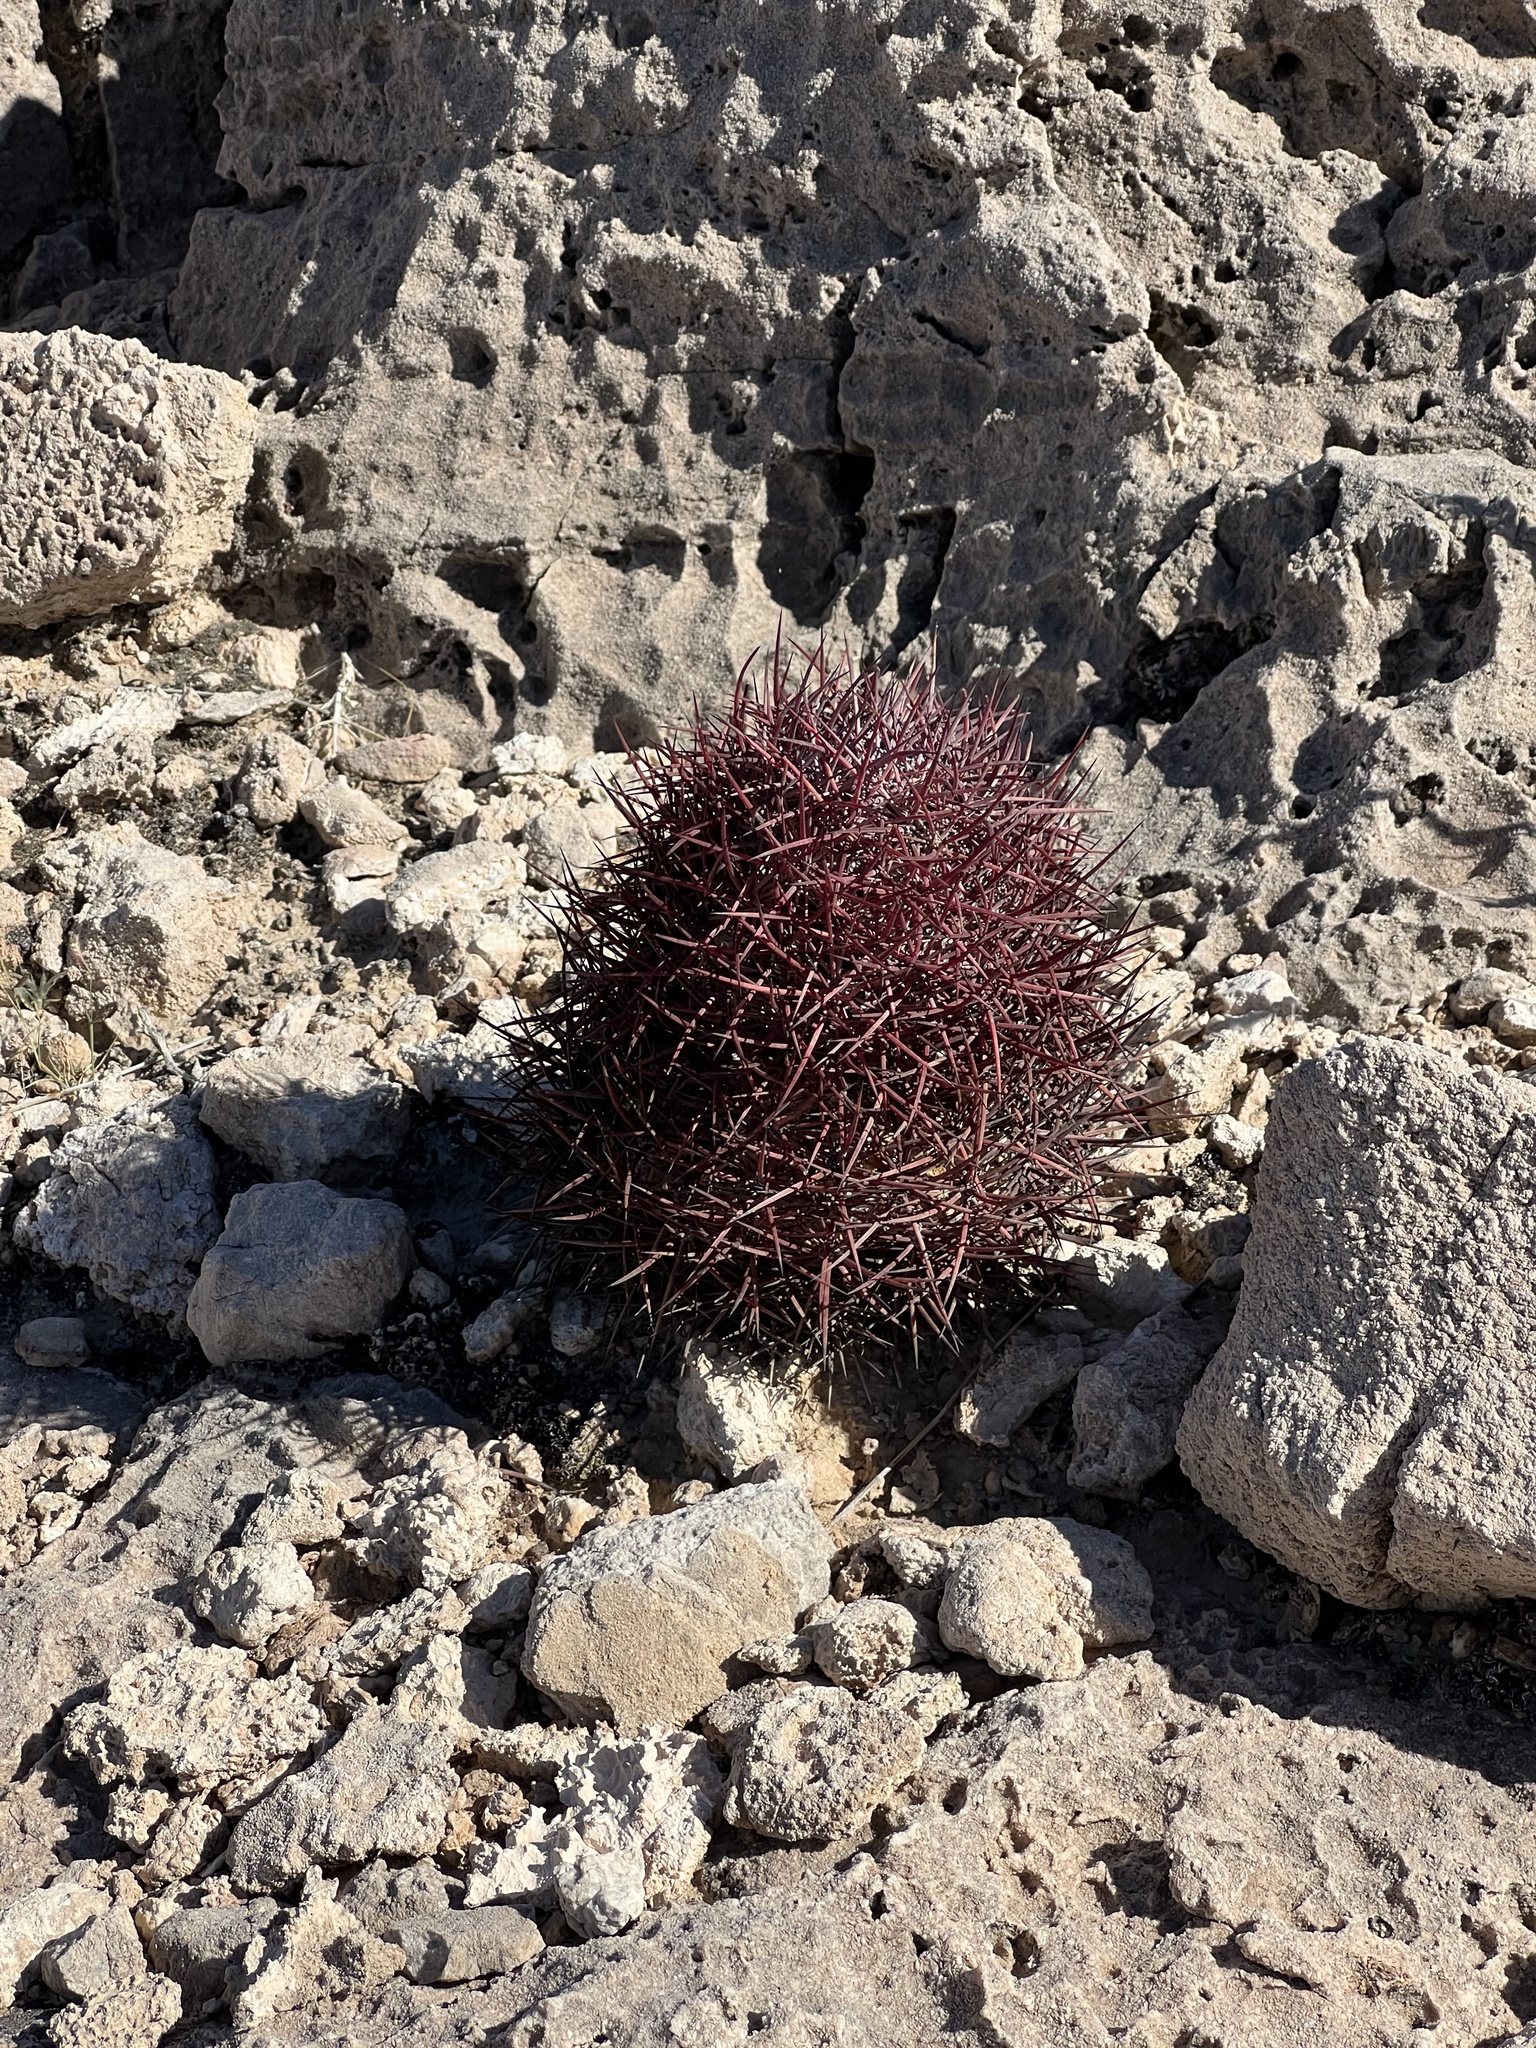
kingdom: Plantae
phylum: Tracheophyta
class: Magnoliopsida
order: Caryophyllales
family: Cactaceae
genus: Sclerocactus
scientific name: Sclerocactus johnsonii
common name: Eight-spine fishhook cactus
